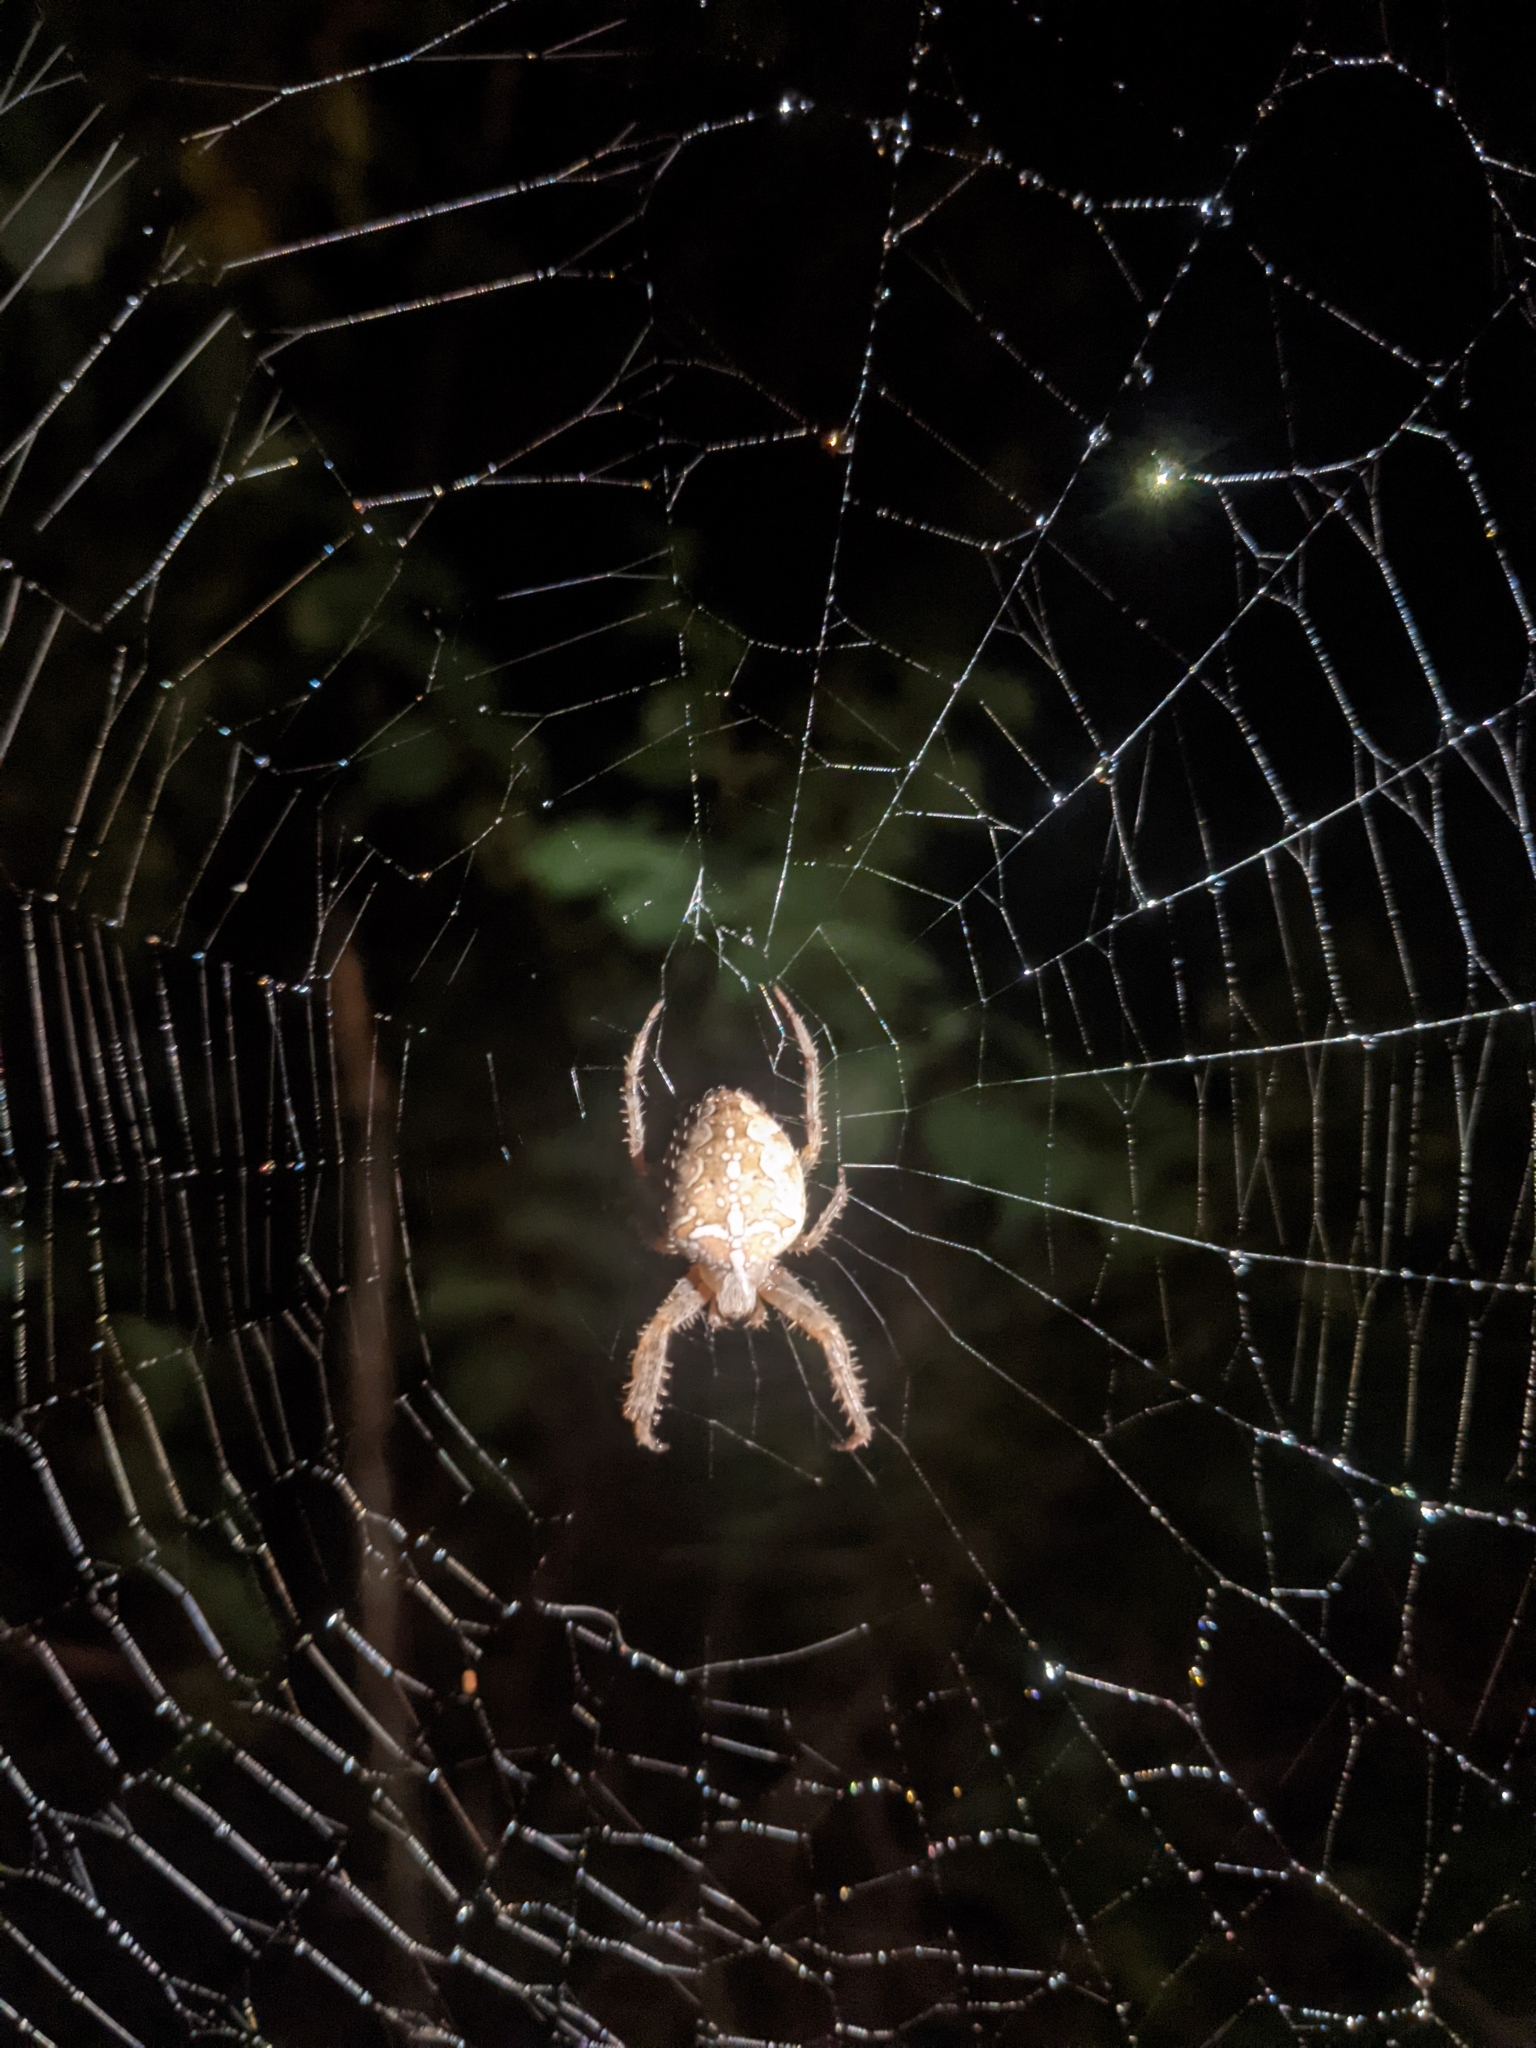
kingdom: Animalia
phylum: Arthropoda
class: Arachnida
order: Araneae
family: Araneidae
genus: Araneus
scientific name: Araneus diadematus
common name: Cross orbweaver
